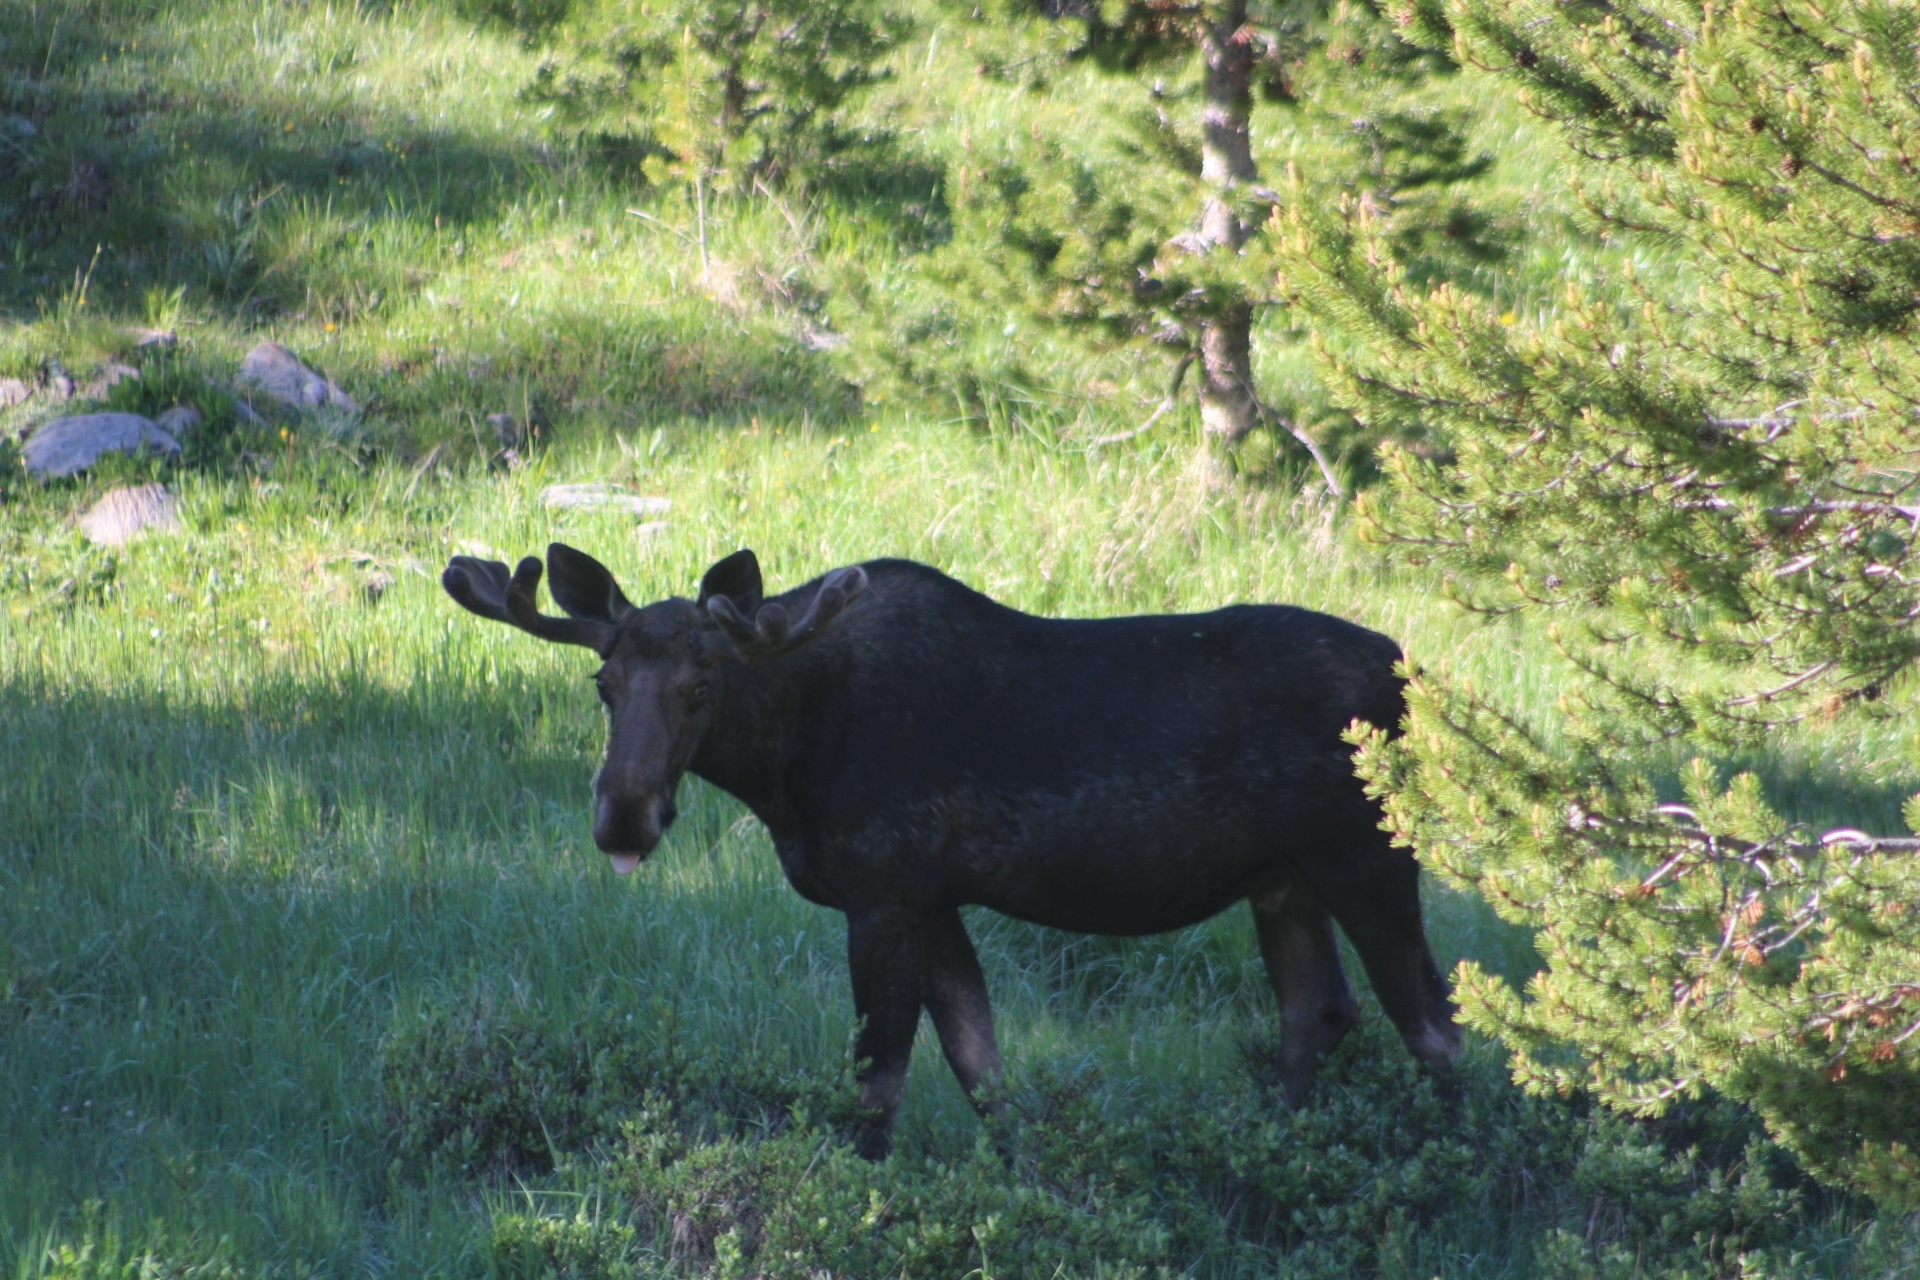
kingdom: Animalia
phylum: Chordata
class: Mammalia
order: Artiodactyla
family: Cervidae
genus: Alces
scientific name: Alces americanus
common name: Moose
